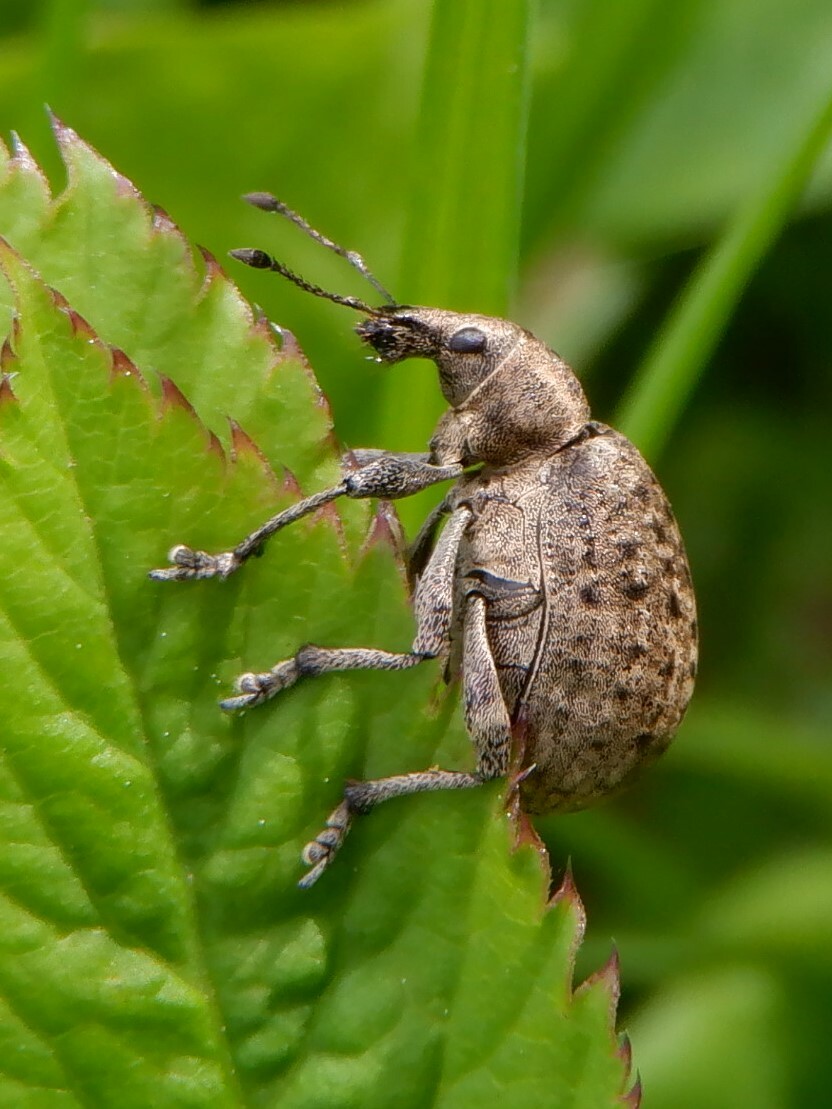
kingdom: Animalia
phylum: Arthropoda
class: Insecta
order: Coleoptera
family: Curculionidae
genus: Liophloeus
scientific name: Liophloeus tessulatus
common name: Weevil
